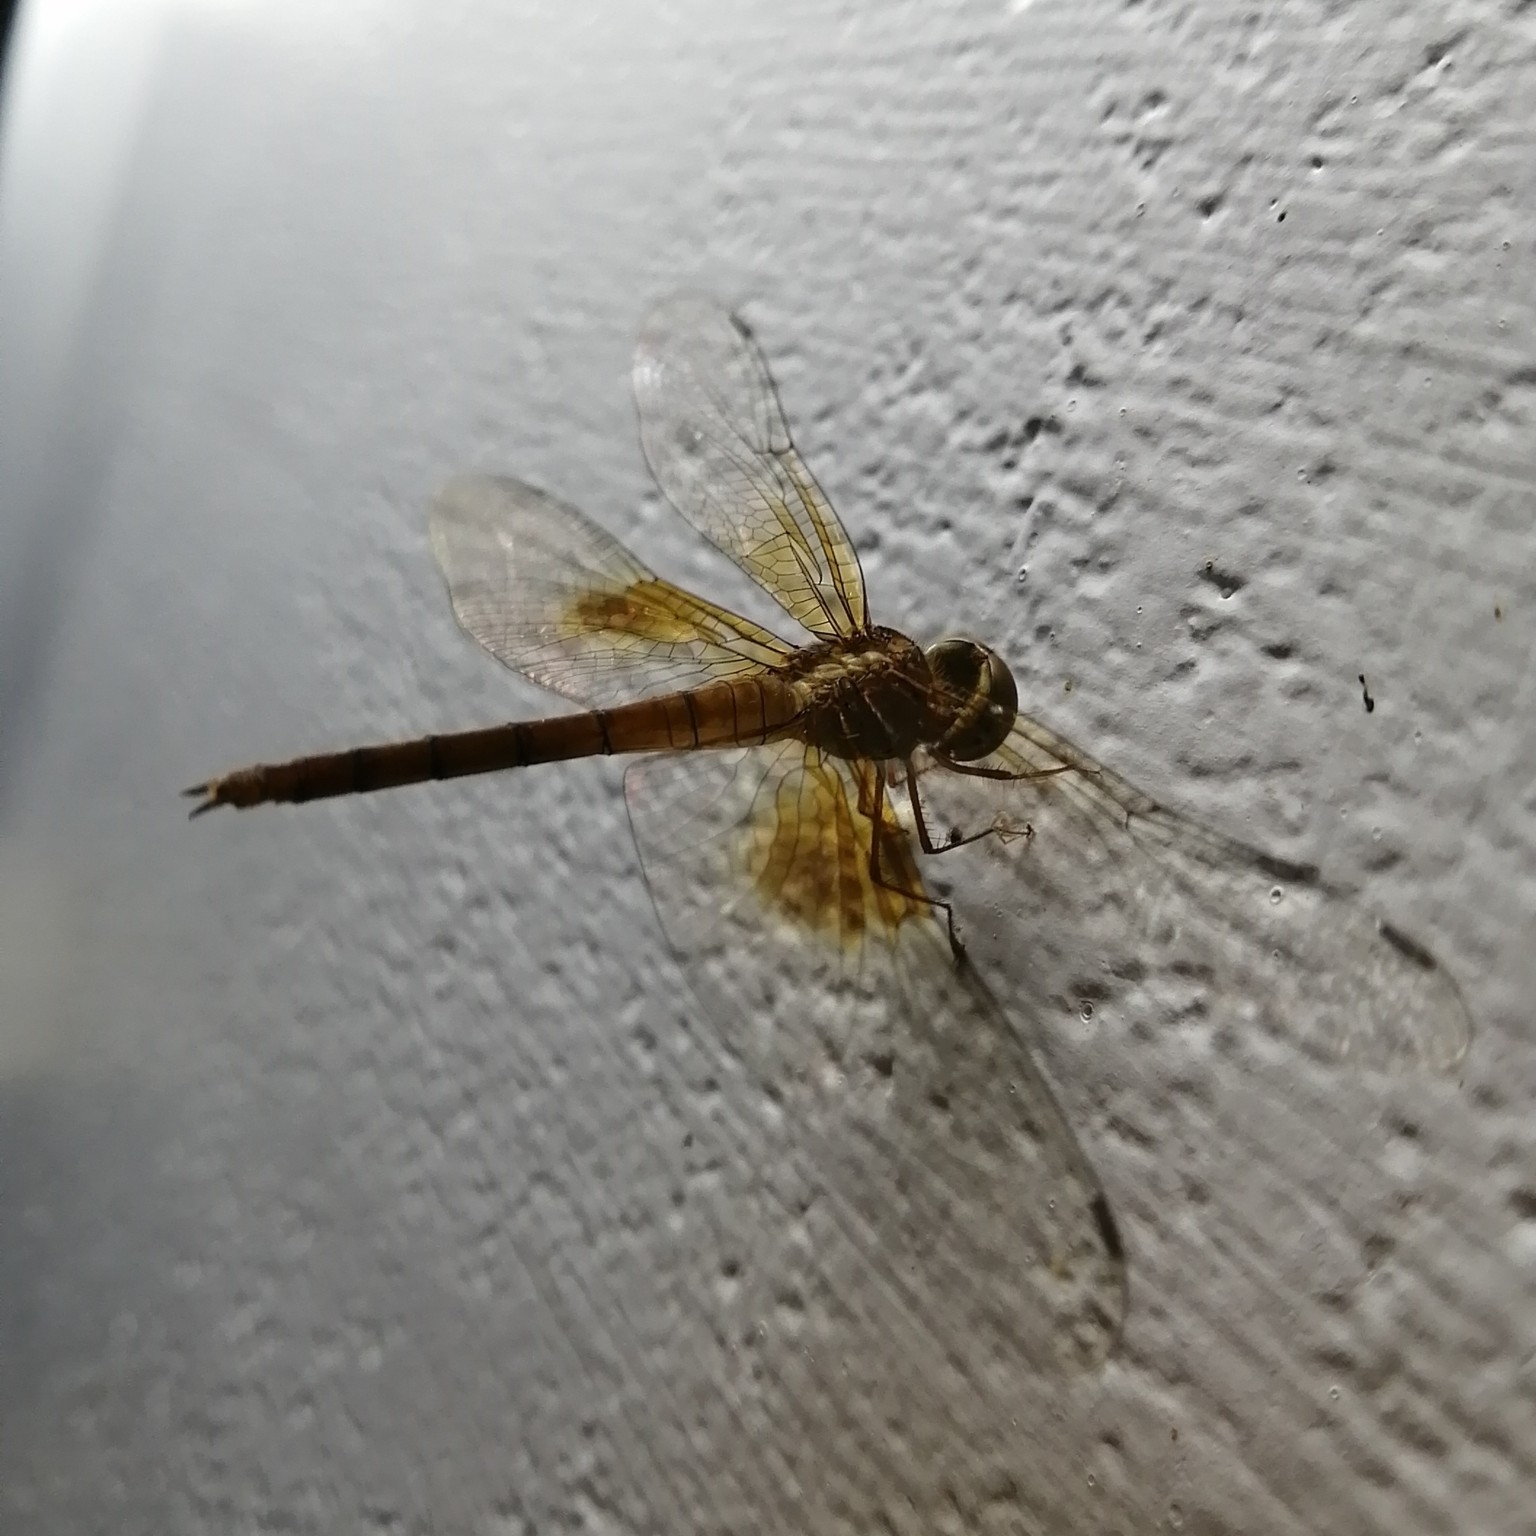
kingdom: Animalia
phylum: Arthropoda
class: Insecta
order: Odonata
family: Libellulidae
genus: Tholymis
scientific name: Tholymis tillarga
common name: Coral-tailed cloud wing
